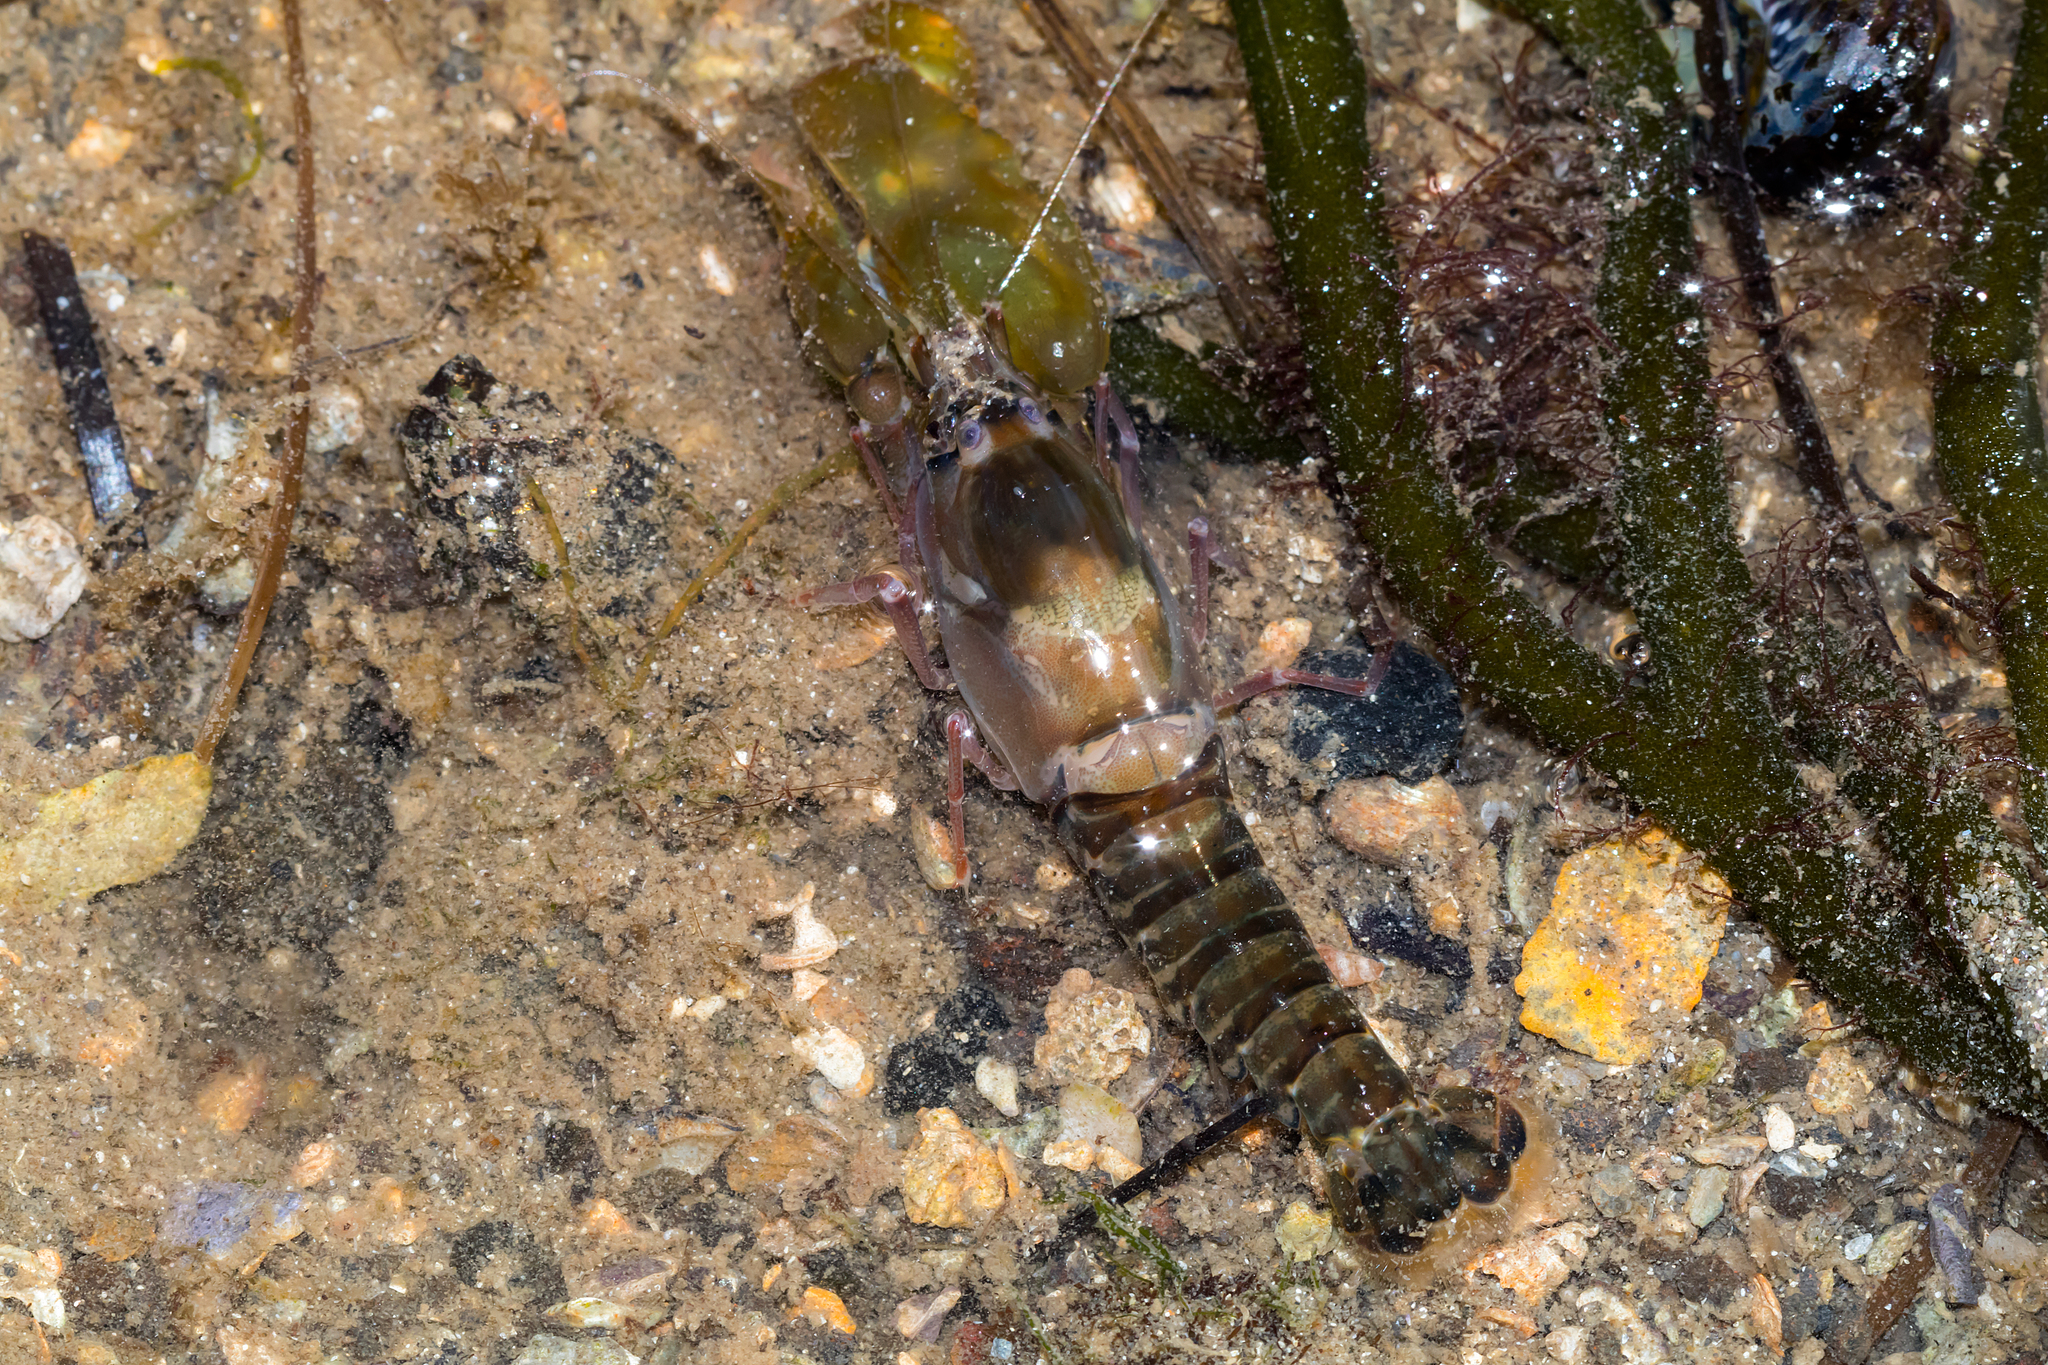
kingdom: Animalia
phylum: Arthropoda
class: Malacostraca
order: Decapoda
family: Alpheidae
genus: Alpheus
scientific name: Alpheus richardsoni
